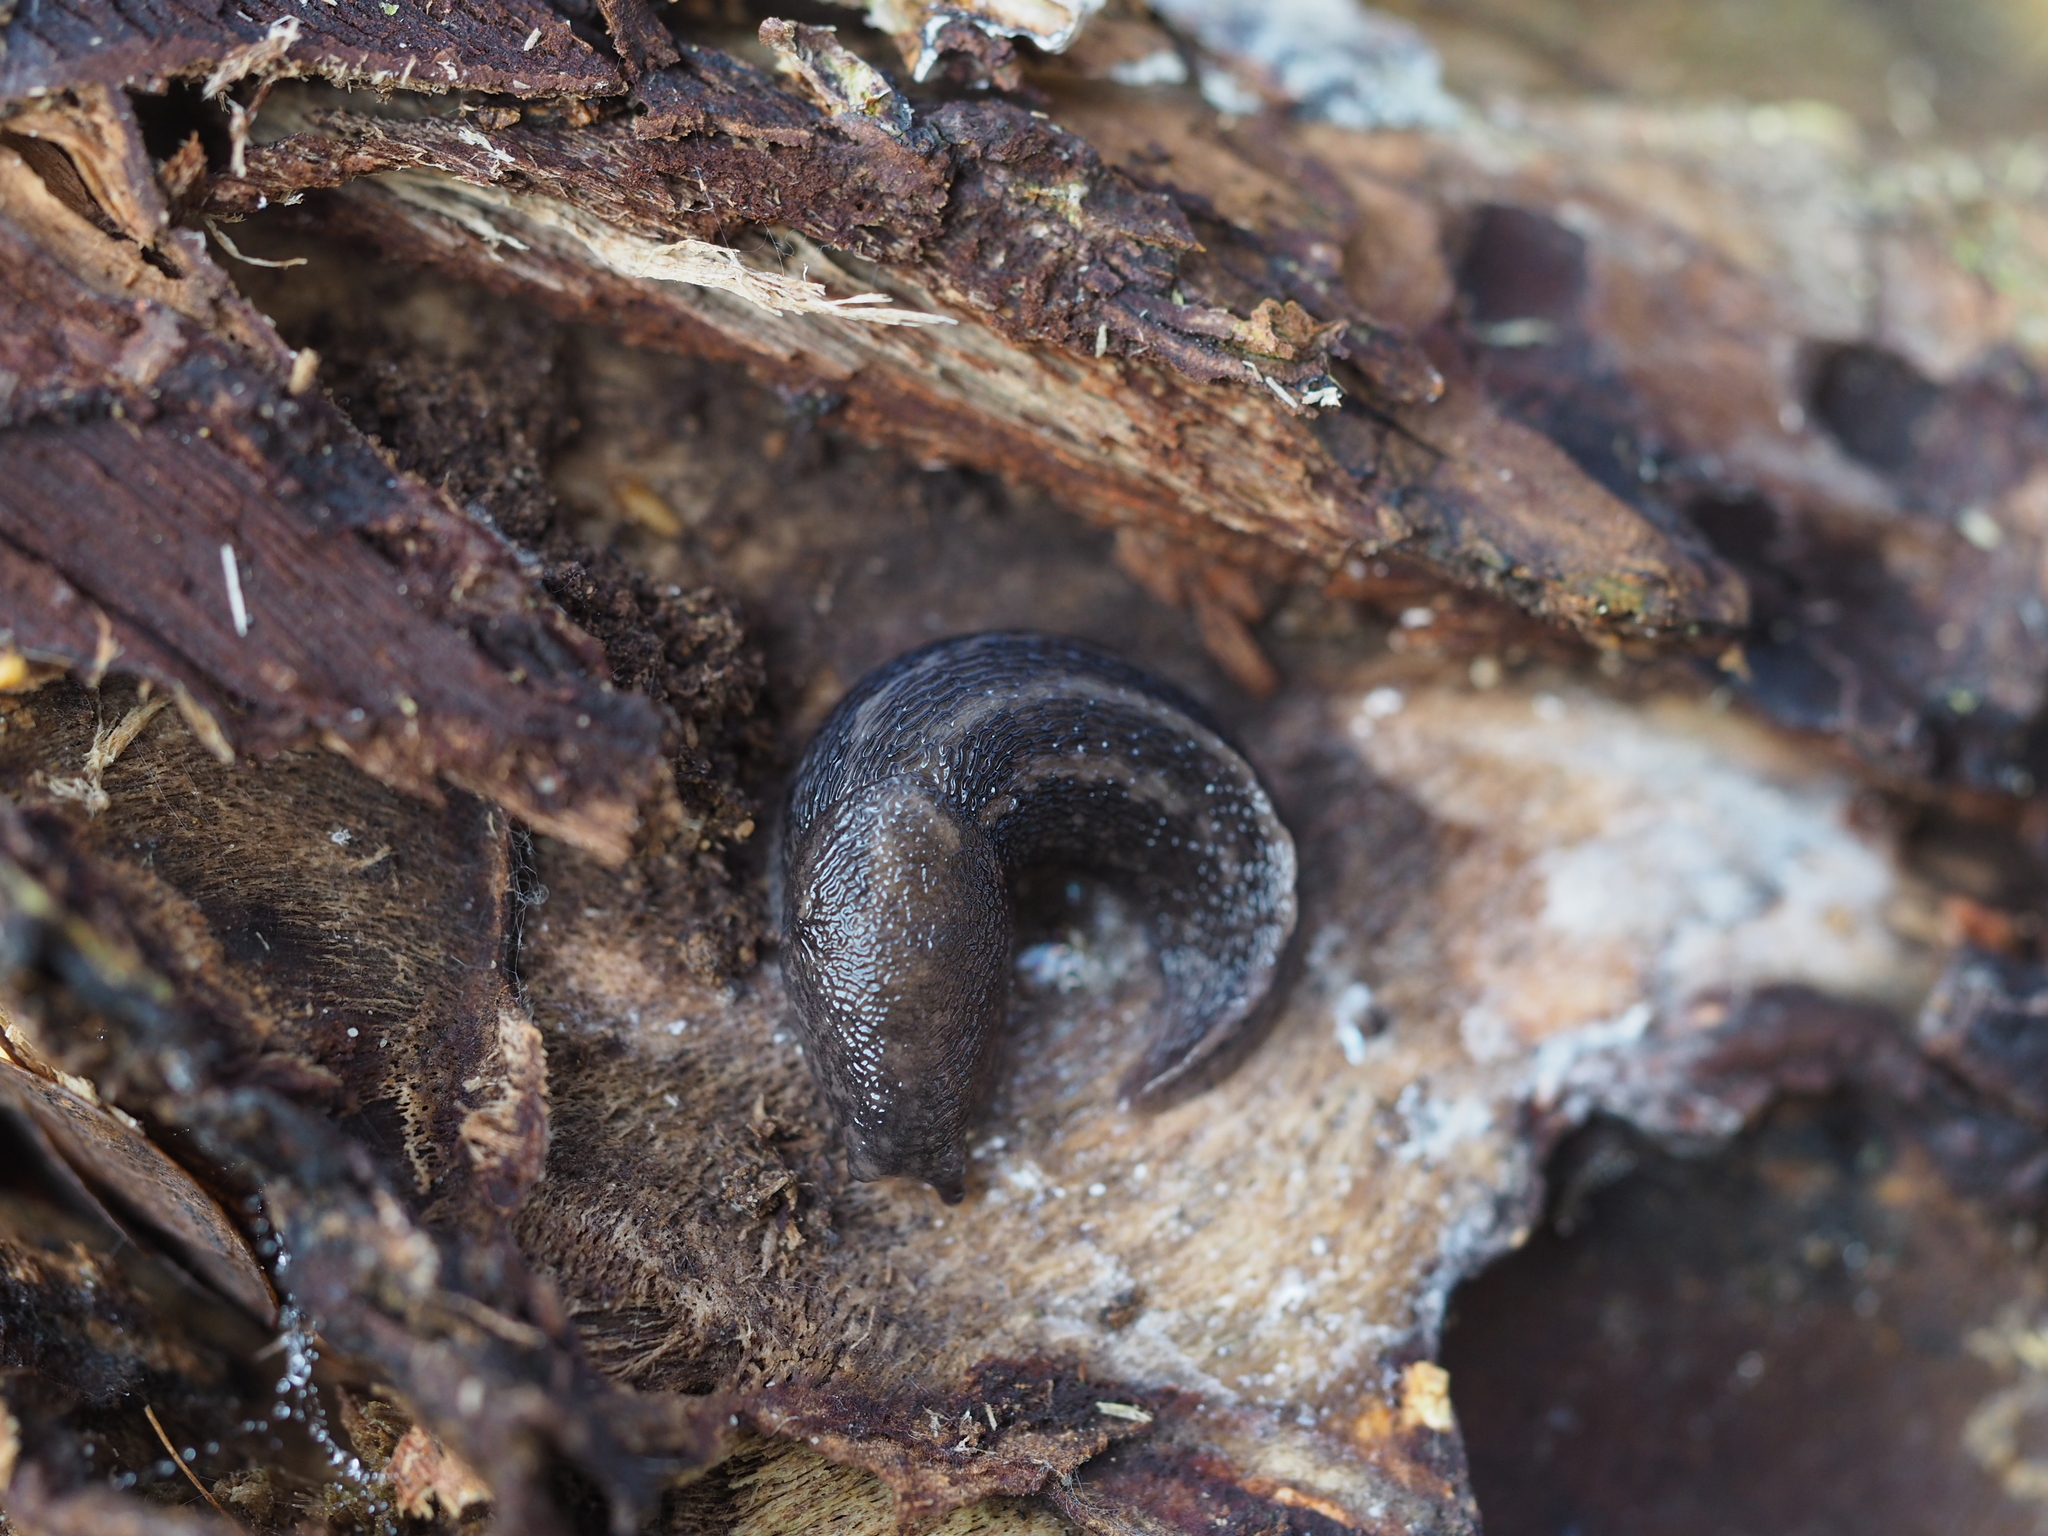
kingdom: Animalia
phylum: Mollusca
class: Gastropoda
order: Stylommatophora
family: Limacidae
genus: Limax
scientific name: Limax maximus
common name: Great grey slug
